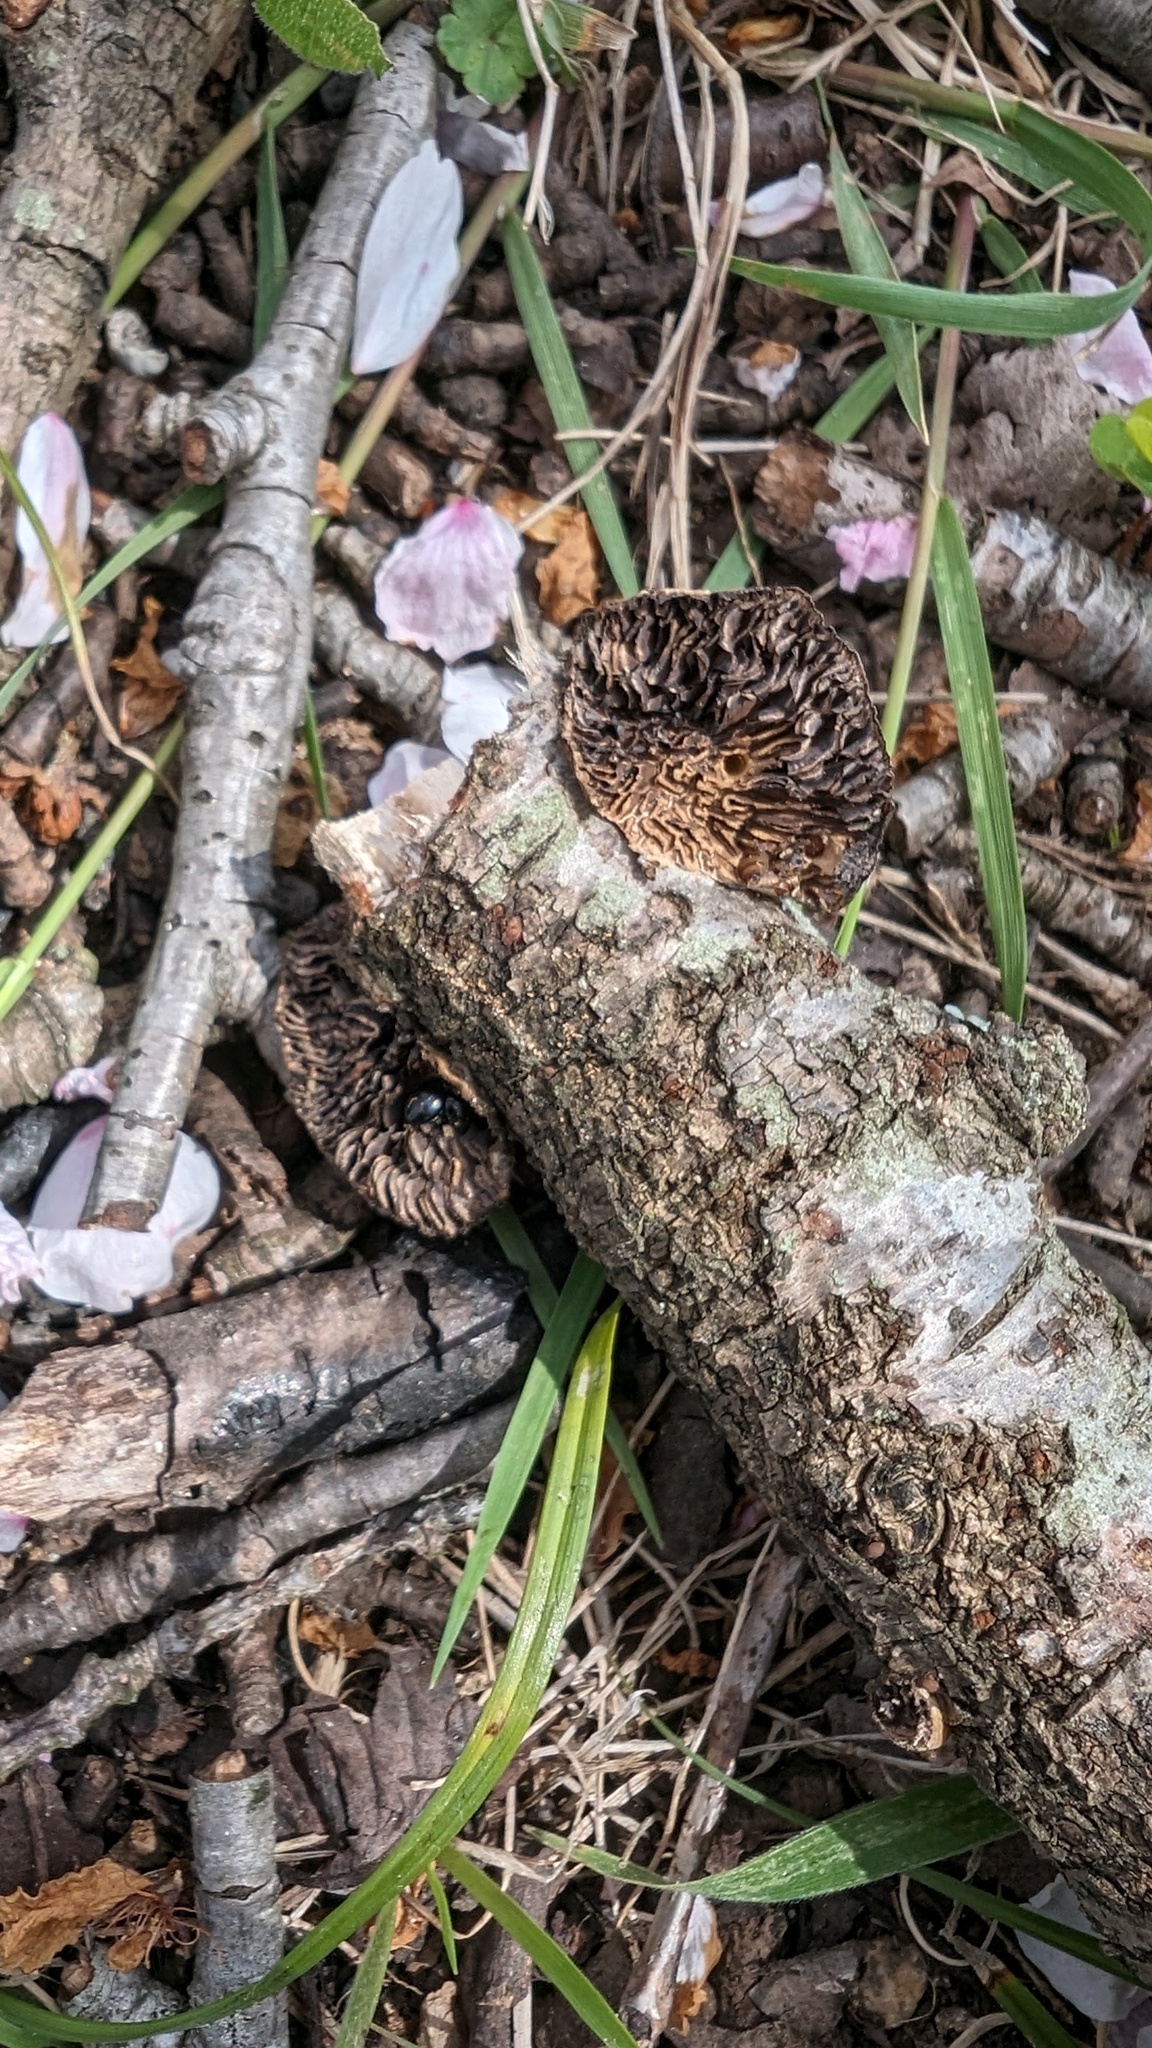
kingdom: Fungi
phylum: Basidiomycota
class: Agaricomycetes
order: Polyporales
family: Polyporaceae
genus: Daedaleopsis
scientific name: Daedaleopsis tricolor
